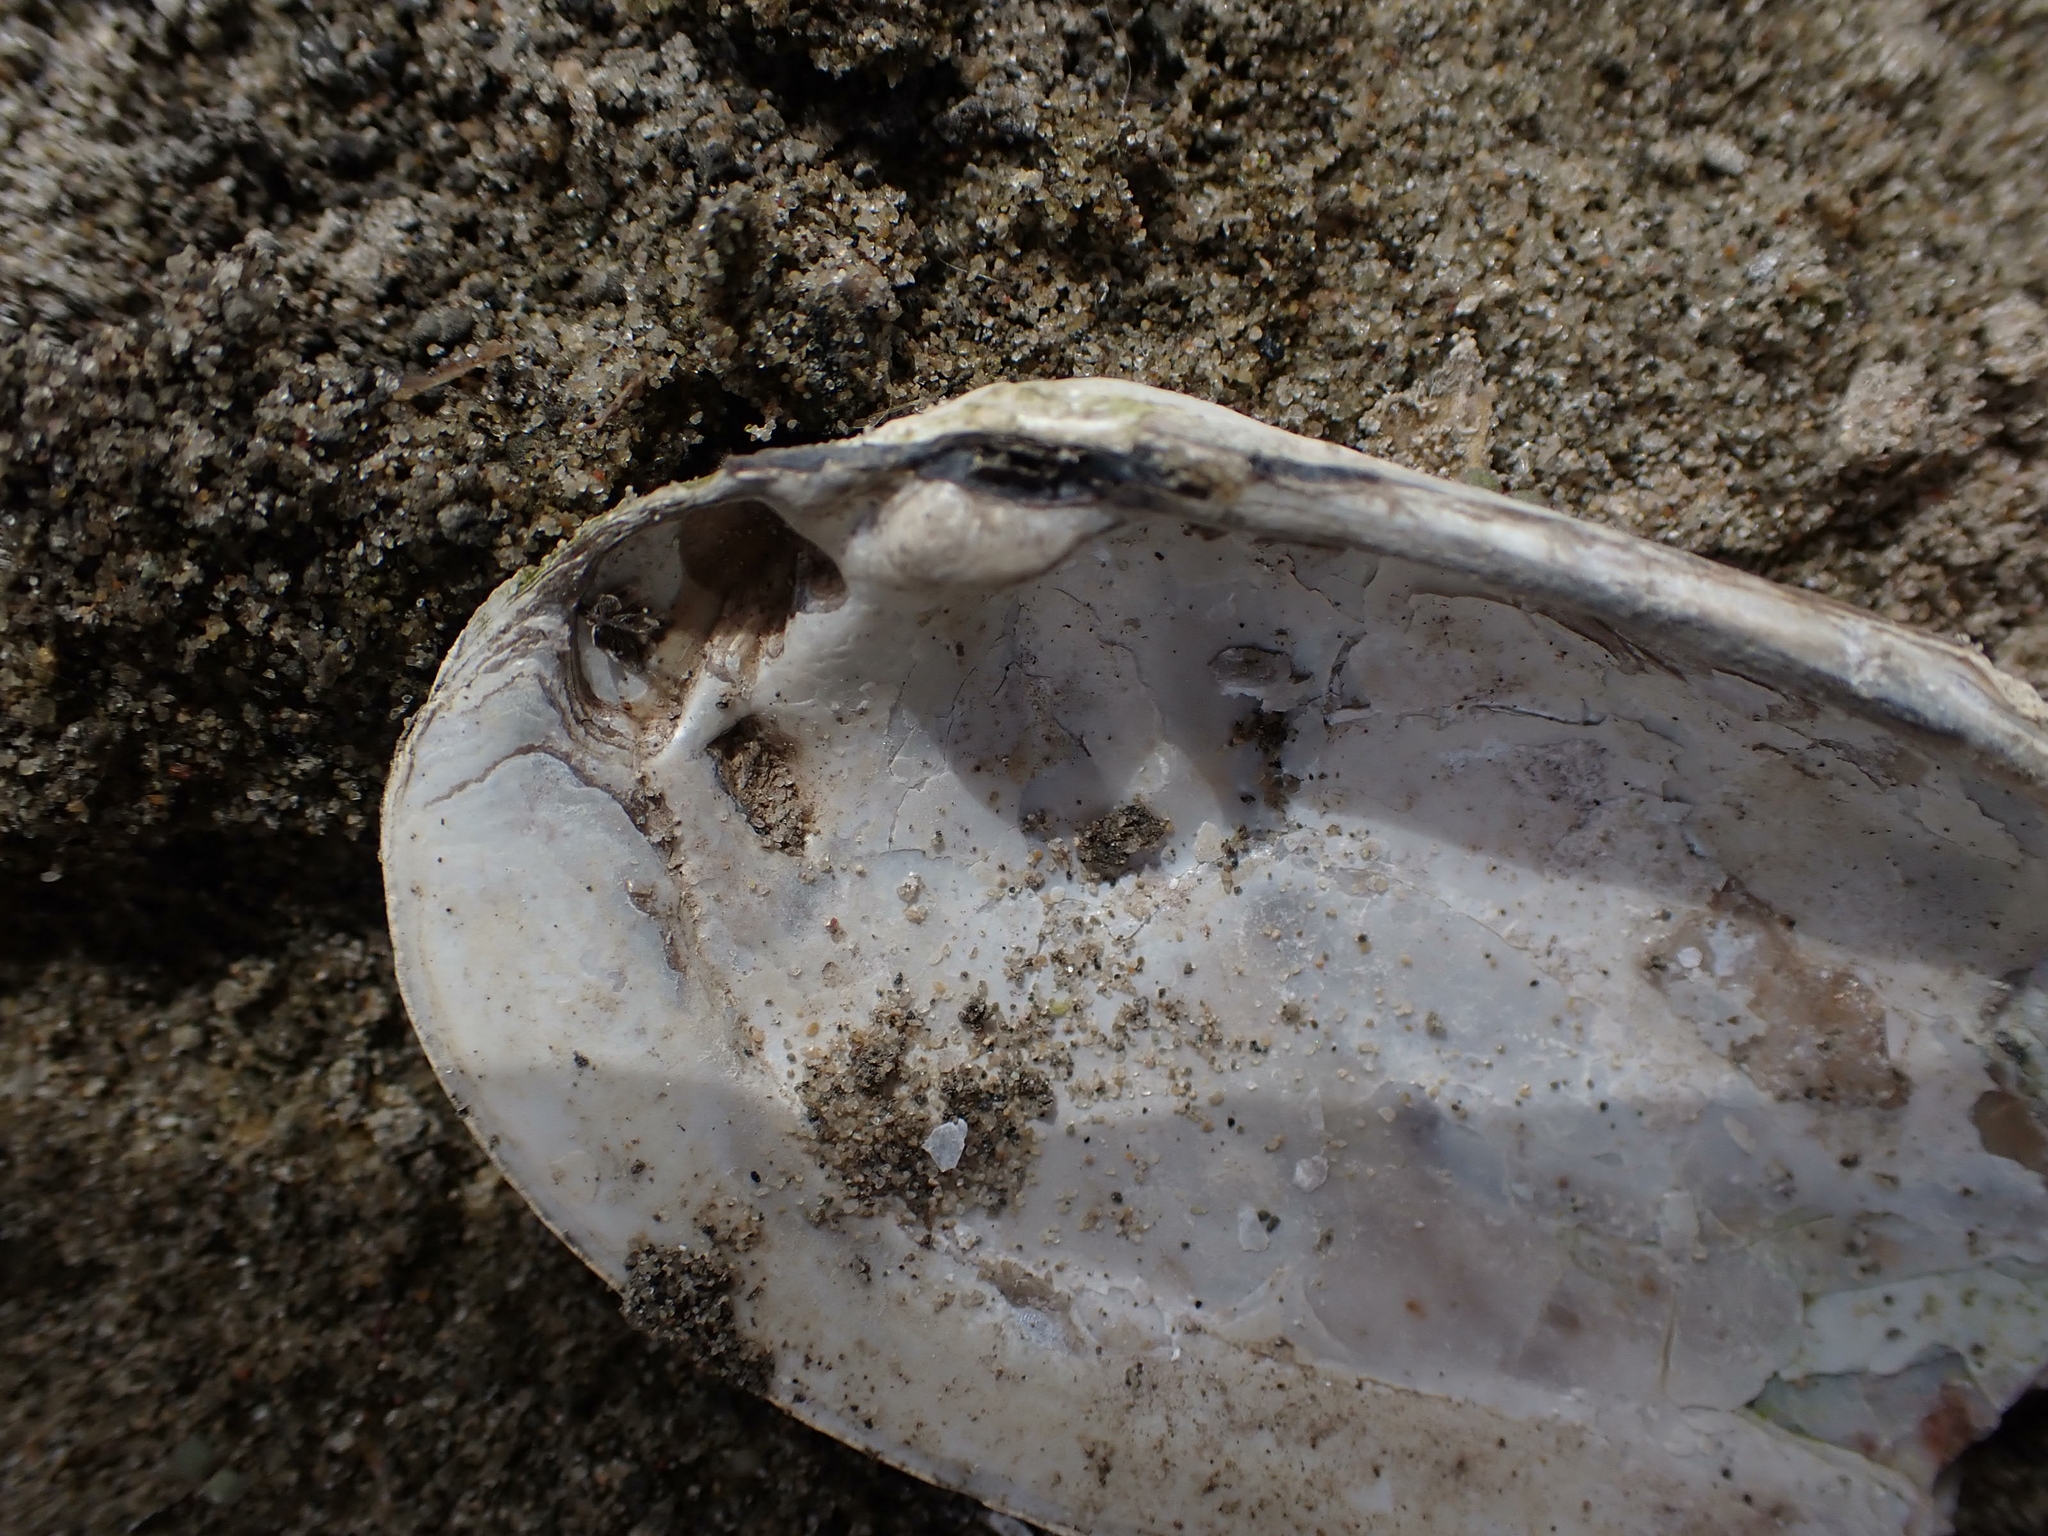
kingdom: Animalia
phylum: Mollusca
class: Bivalvia
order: Unionida
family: Unionidae
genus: Lampsilis
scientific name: Lampsilis siliquoidea
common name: Fatmucket
